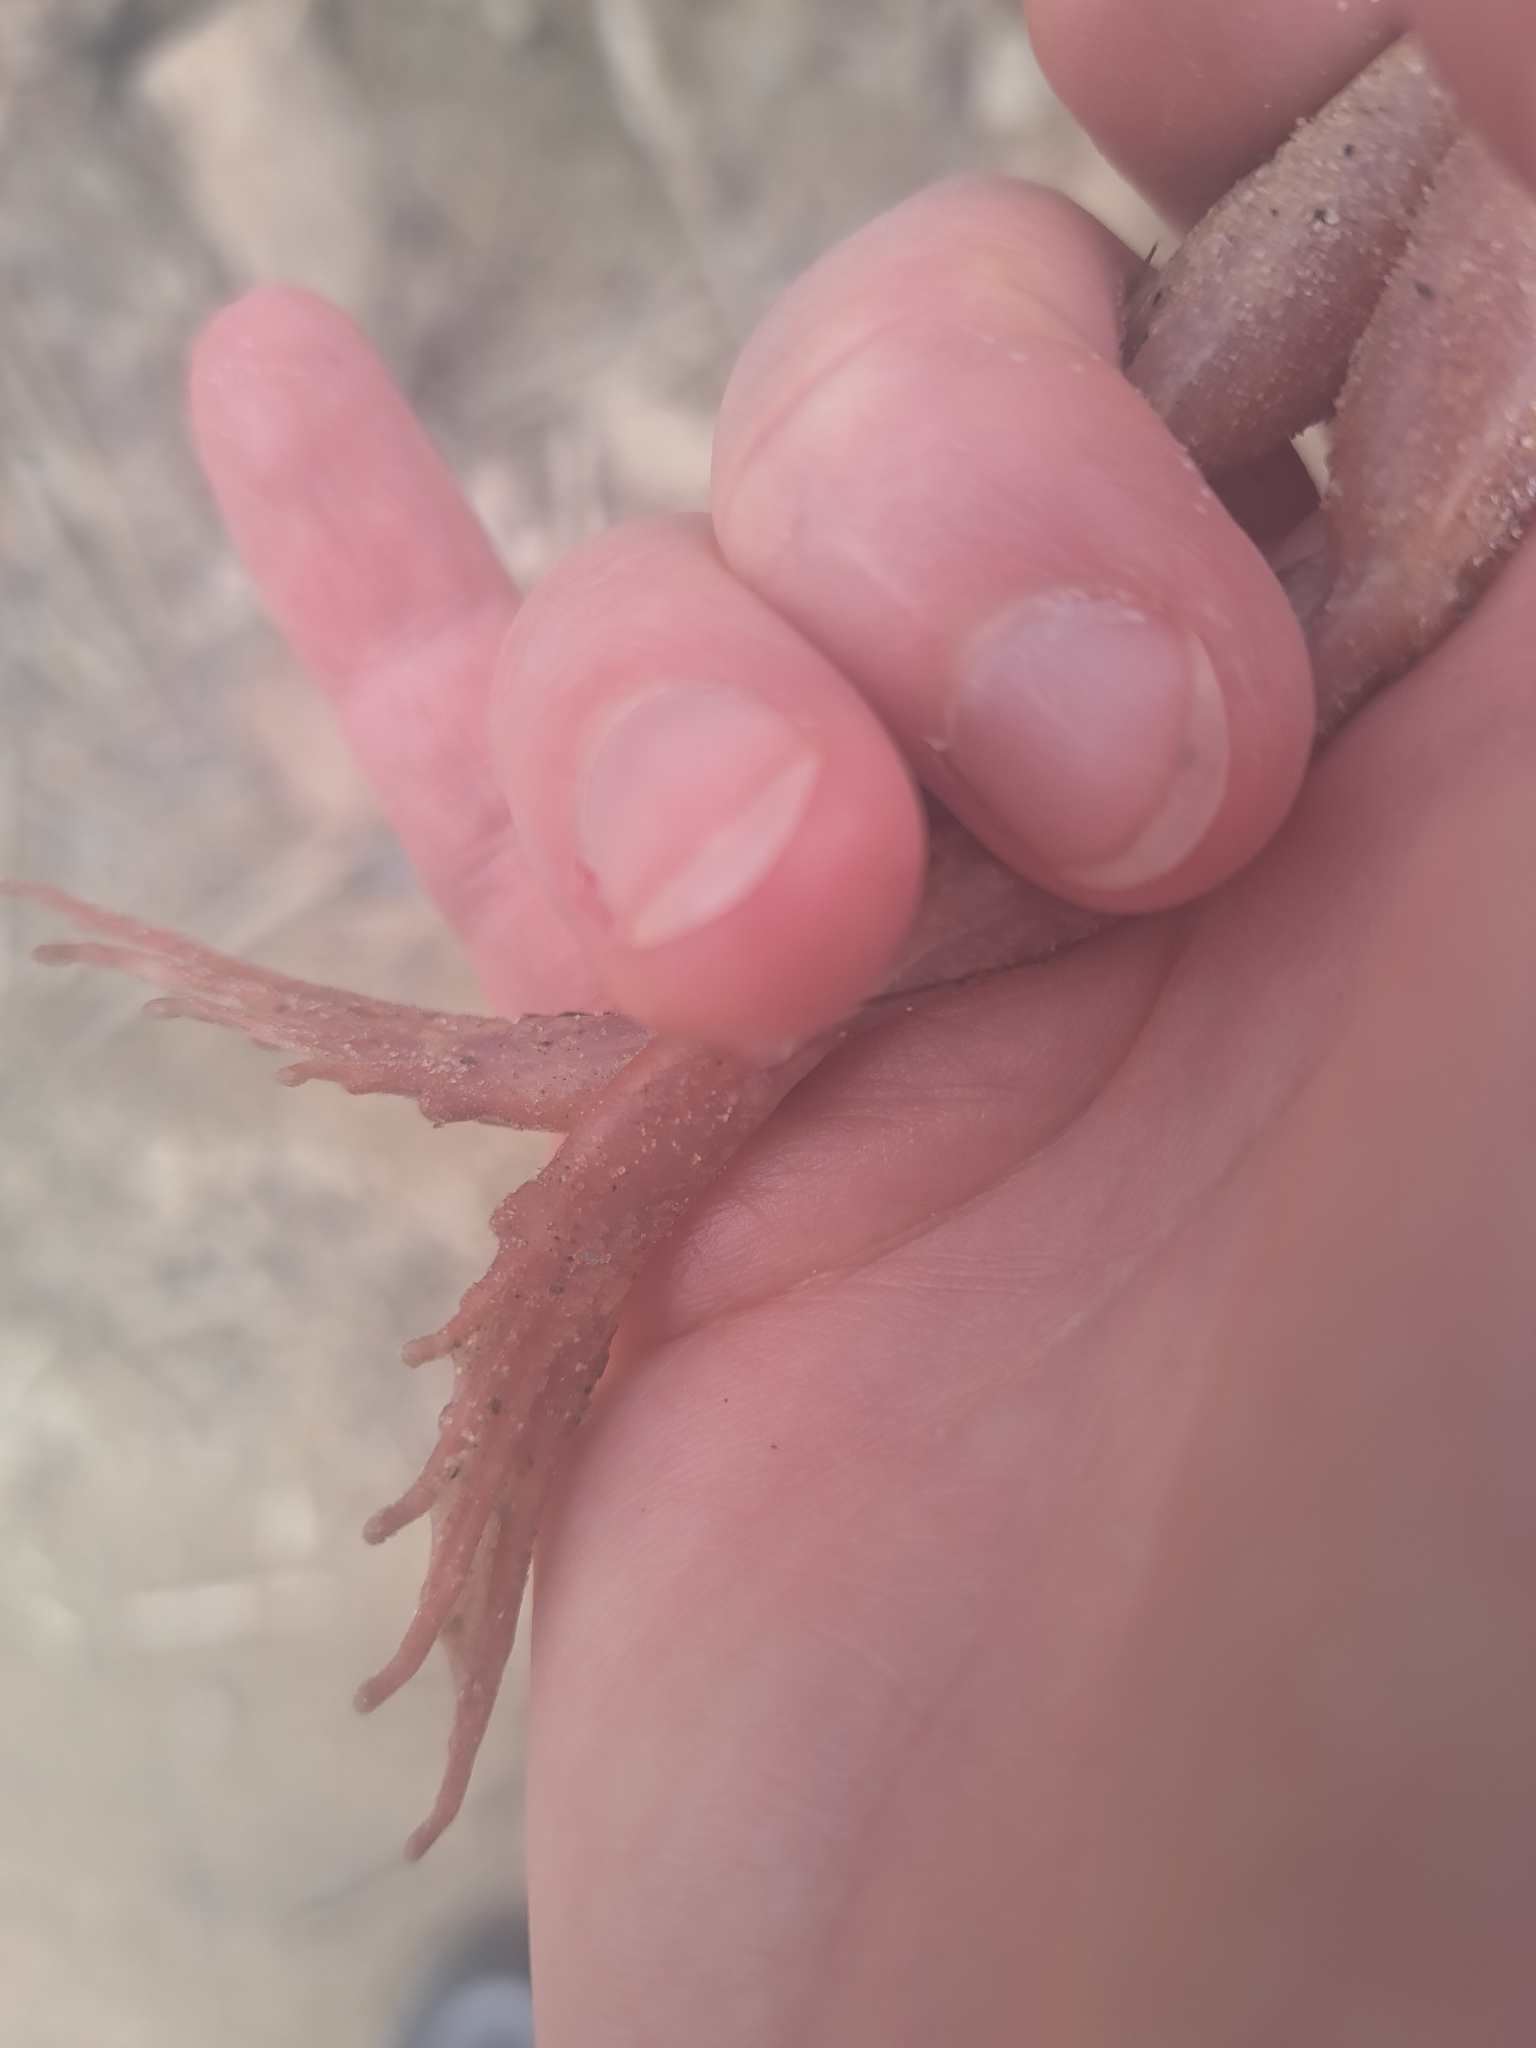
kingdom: Animalia
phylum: Chordata
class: Amphibia
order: Anura
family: Ranidae
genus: Rana
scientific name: Rana temporaria
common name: Common frog
